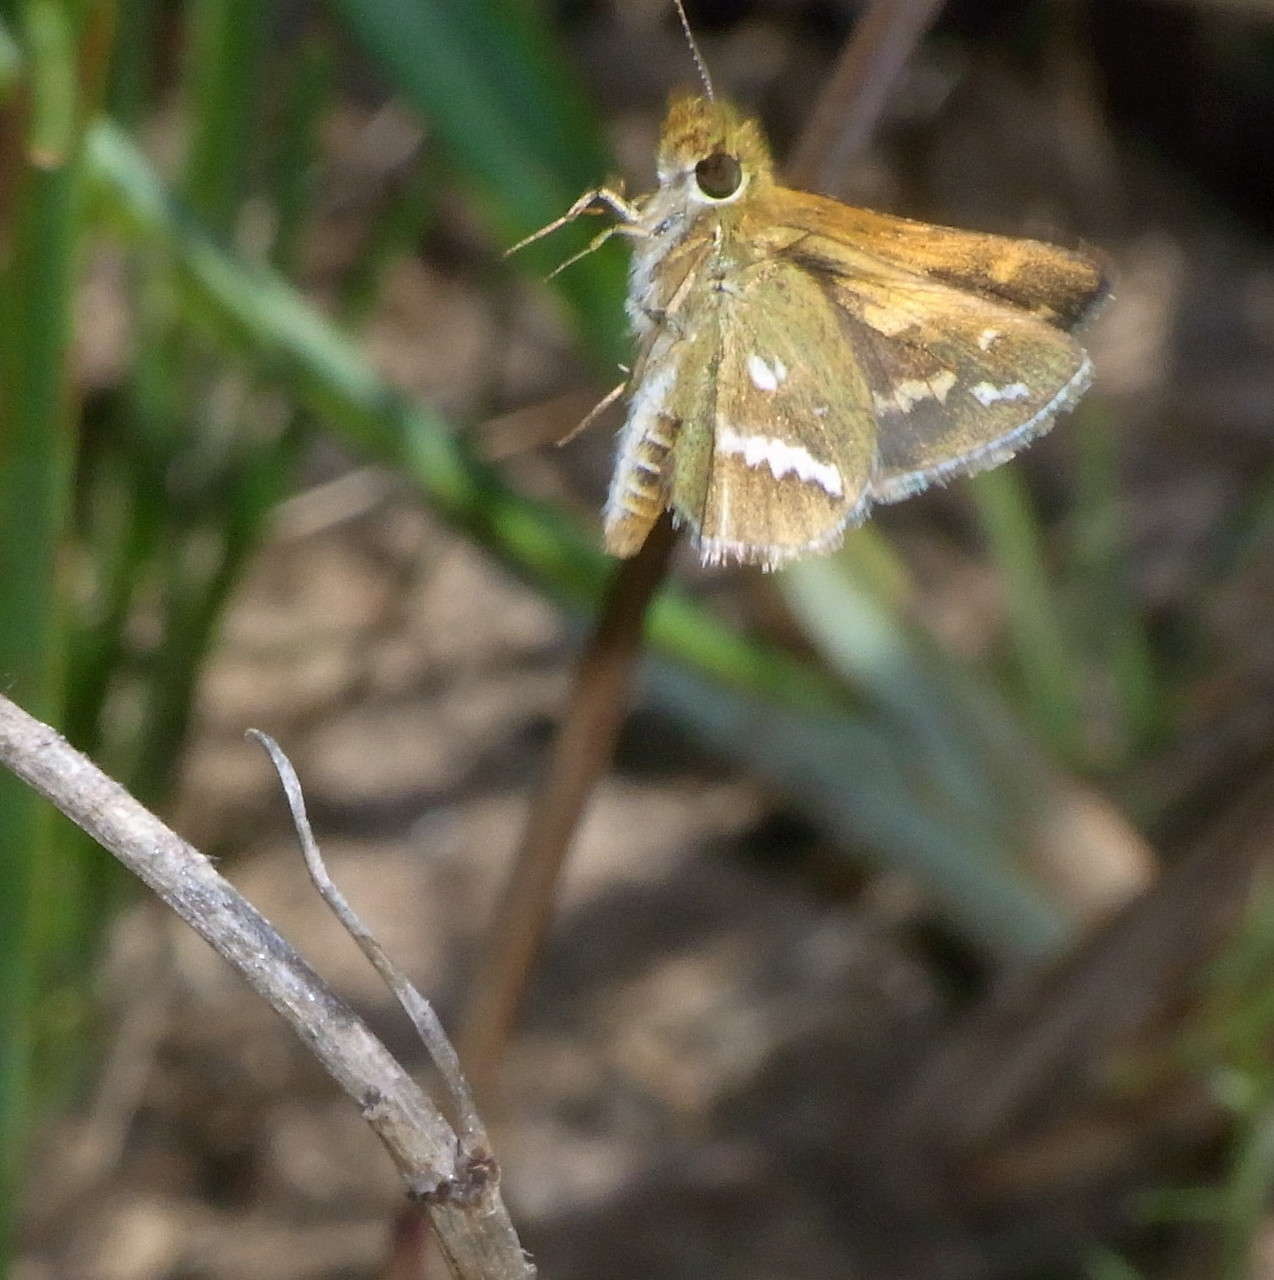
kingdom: Animalia
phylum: Arthropoda
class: Insecta
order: Lepidoptera
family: Hesperiidae
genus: Taractrocera
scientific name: Taractrocera papyria
